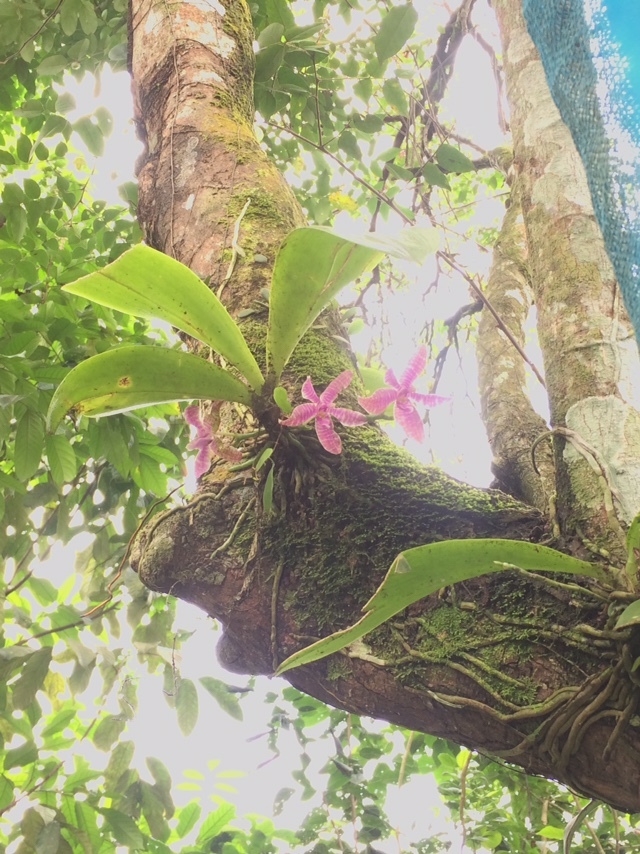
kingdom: Plantae
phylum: Tracheophyta
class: Liliopsida
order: Asparagales
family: Orchidaceae
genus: Phalaenopsis
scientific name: Phalaenopsis lueddemanniana
